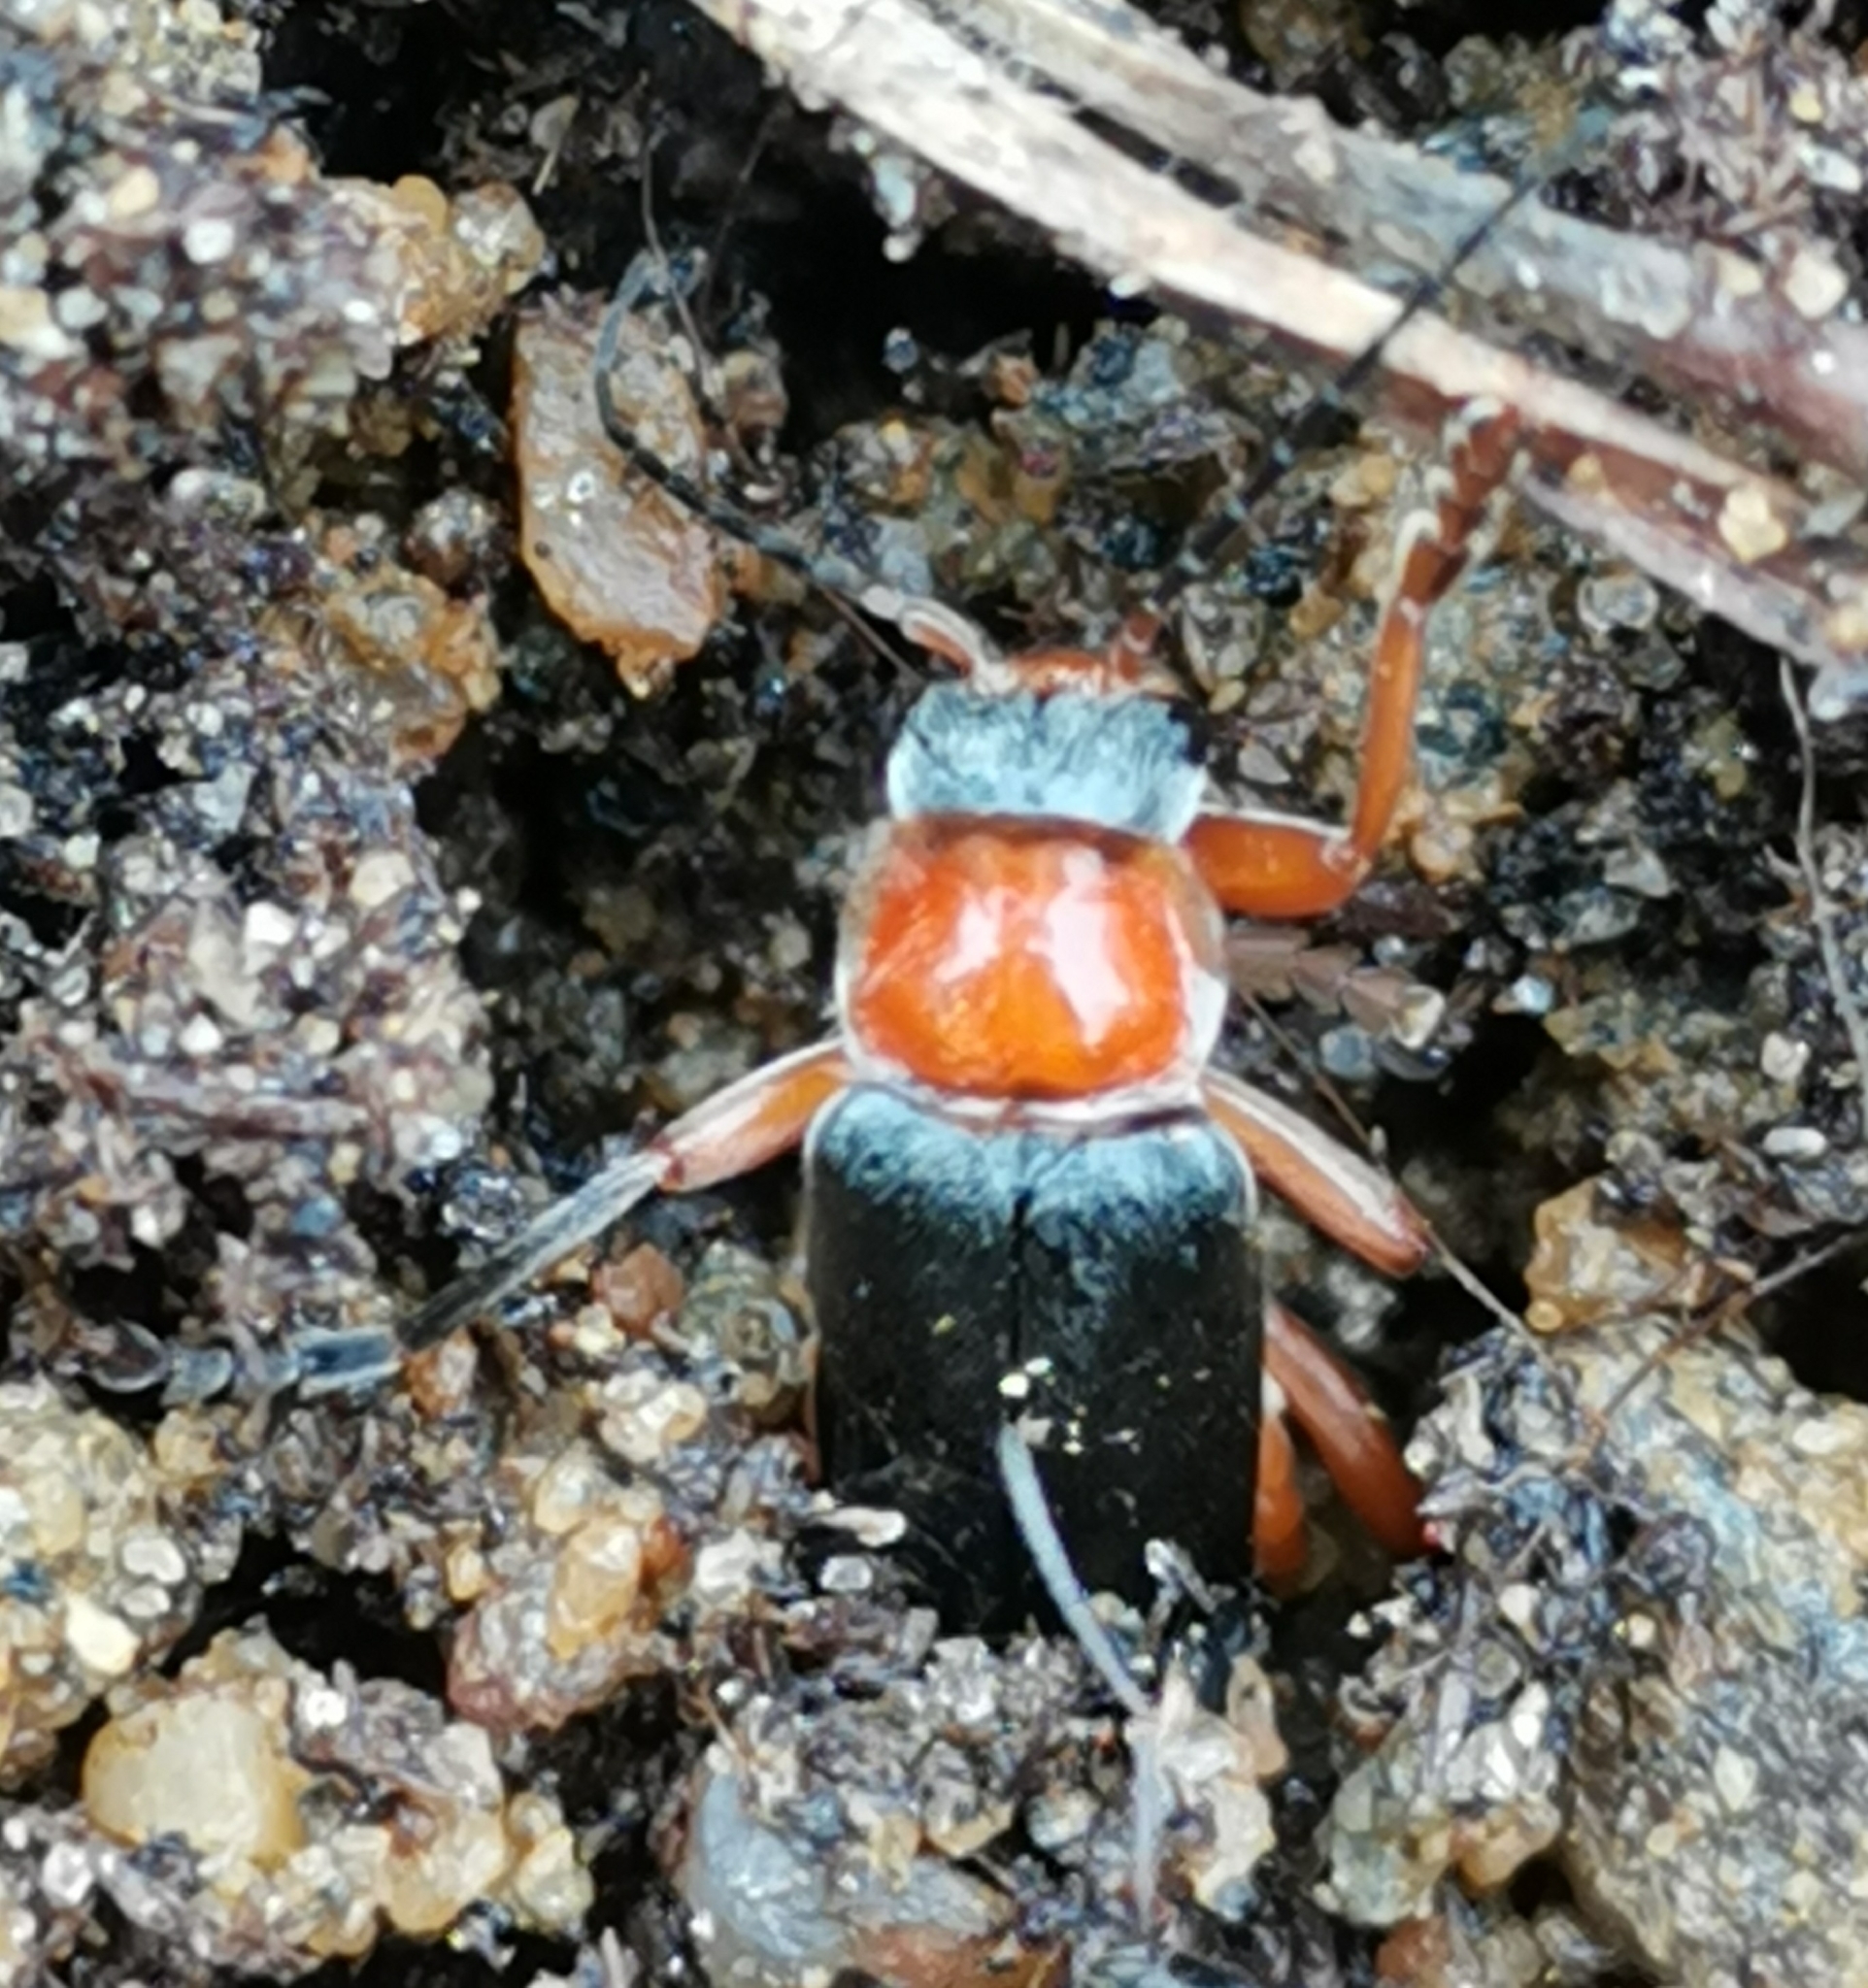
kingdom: Animalia
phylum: Arthropoda
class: Insecta
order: Coleoptera
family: Cantharidae
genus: Cantharis
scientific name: Cantharis pellucida
